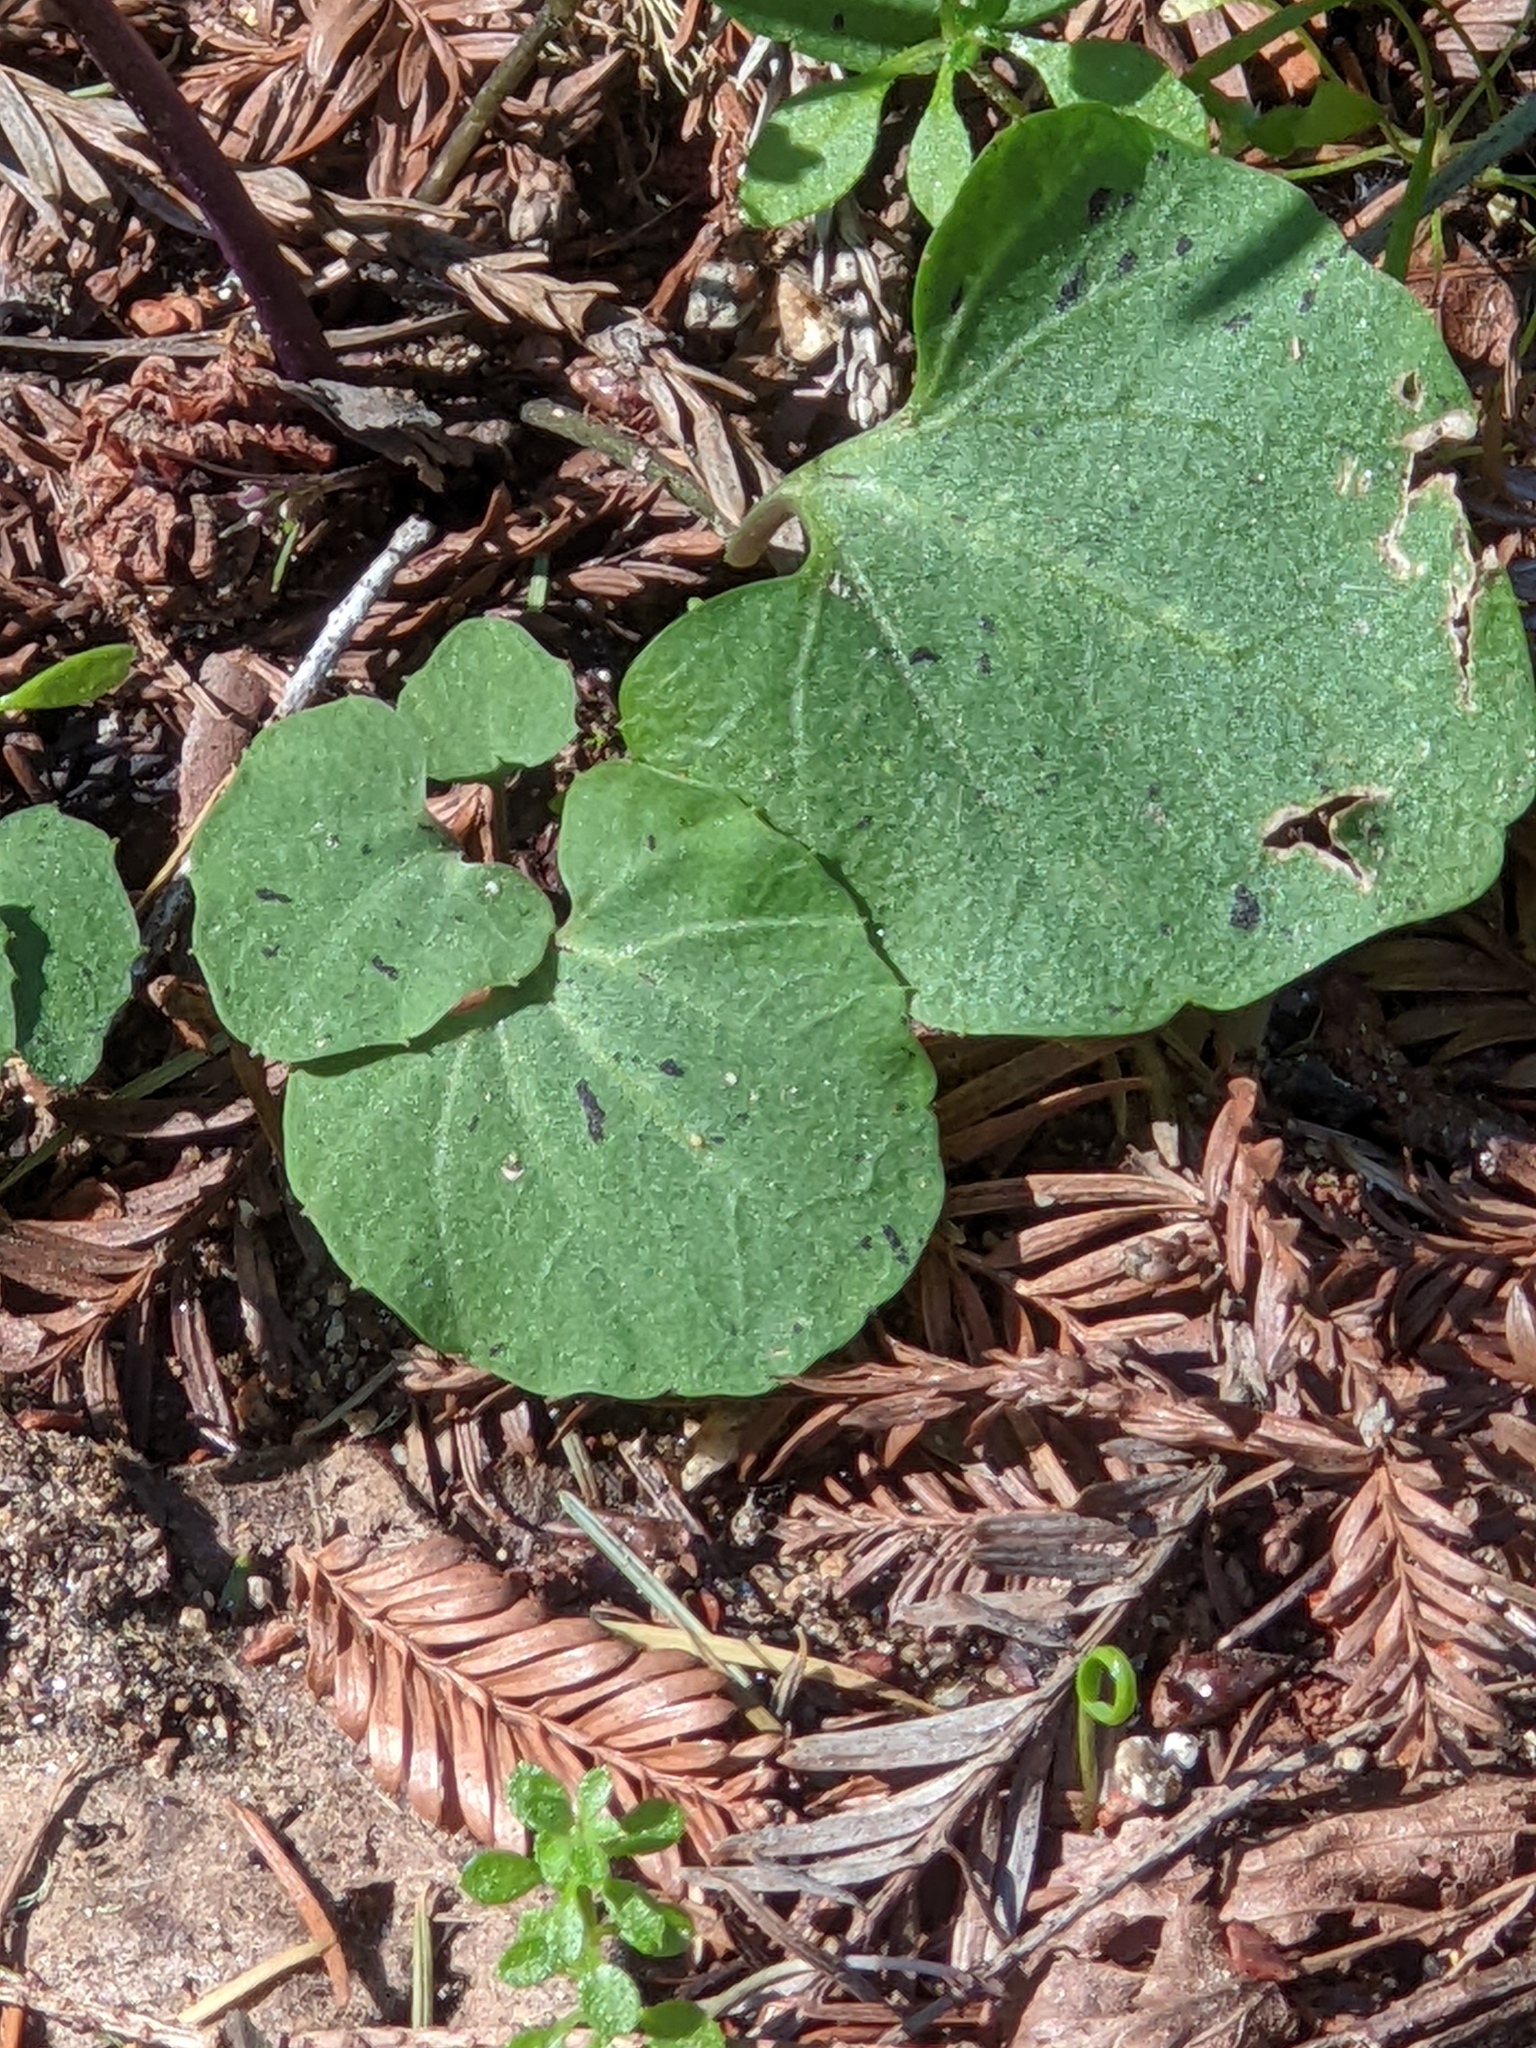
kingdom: Plantae
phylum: Tracheophyta
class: Magnoliopsida
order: Brassicales
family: Brassicaceae
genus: Cardamine
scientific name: Cardamine californica
